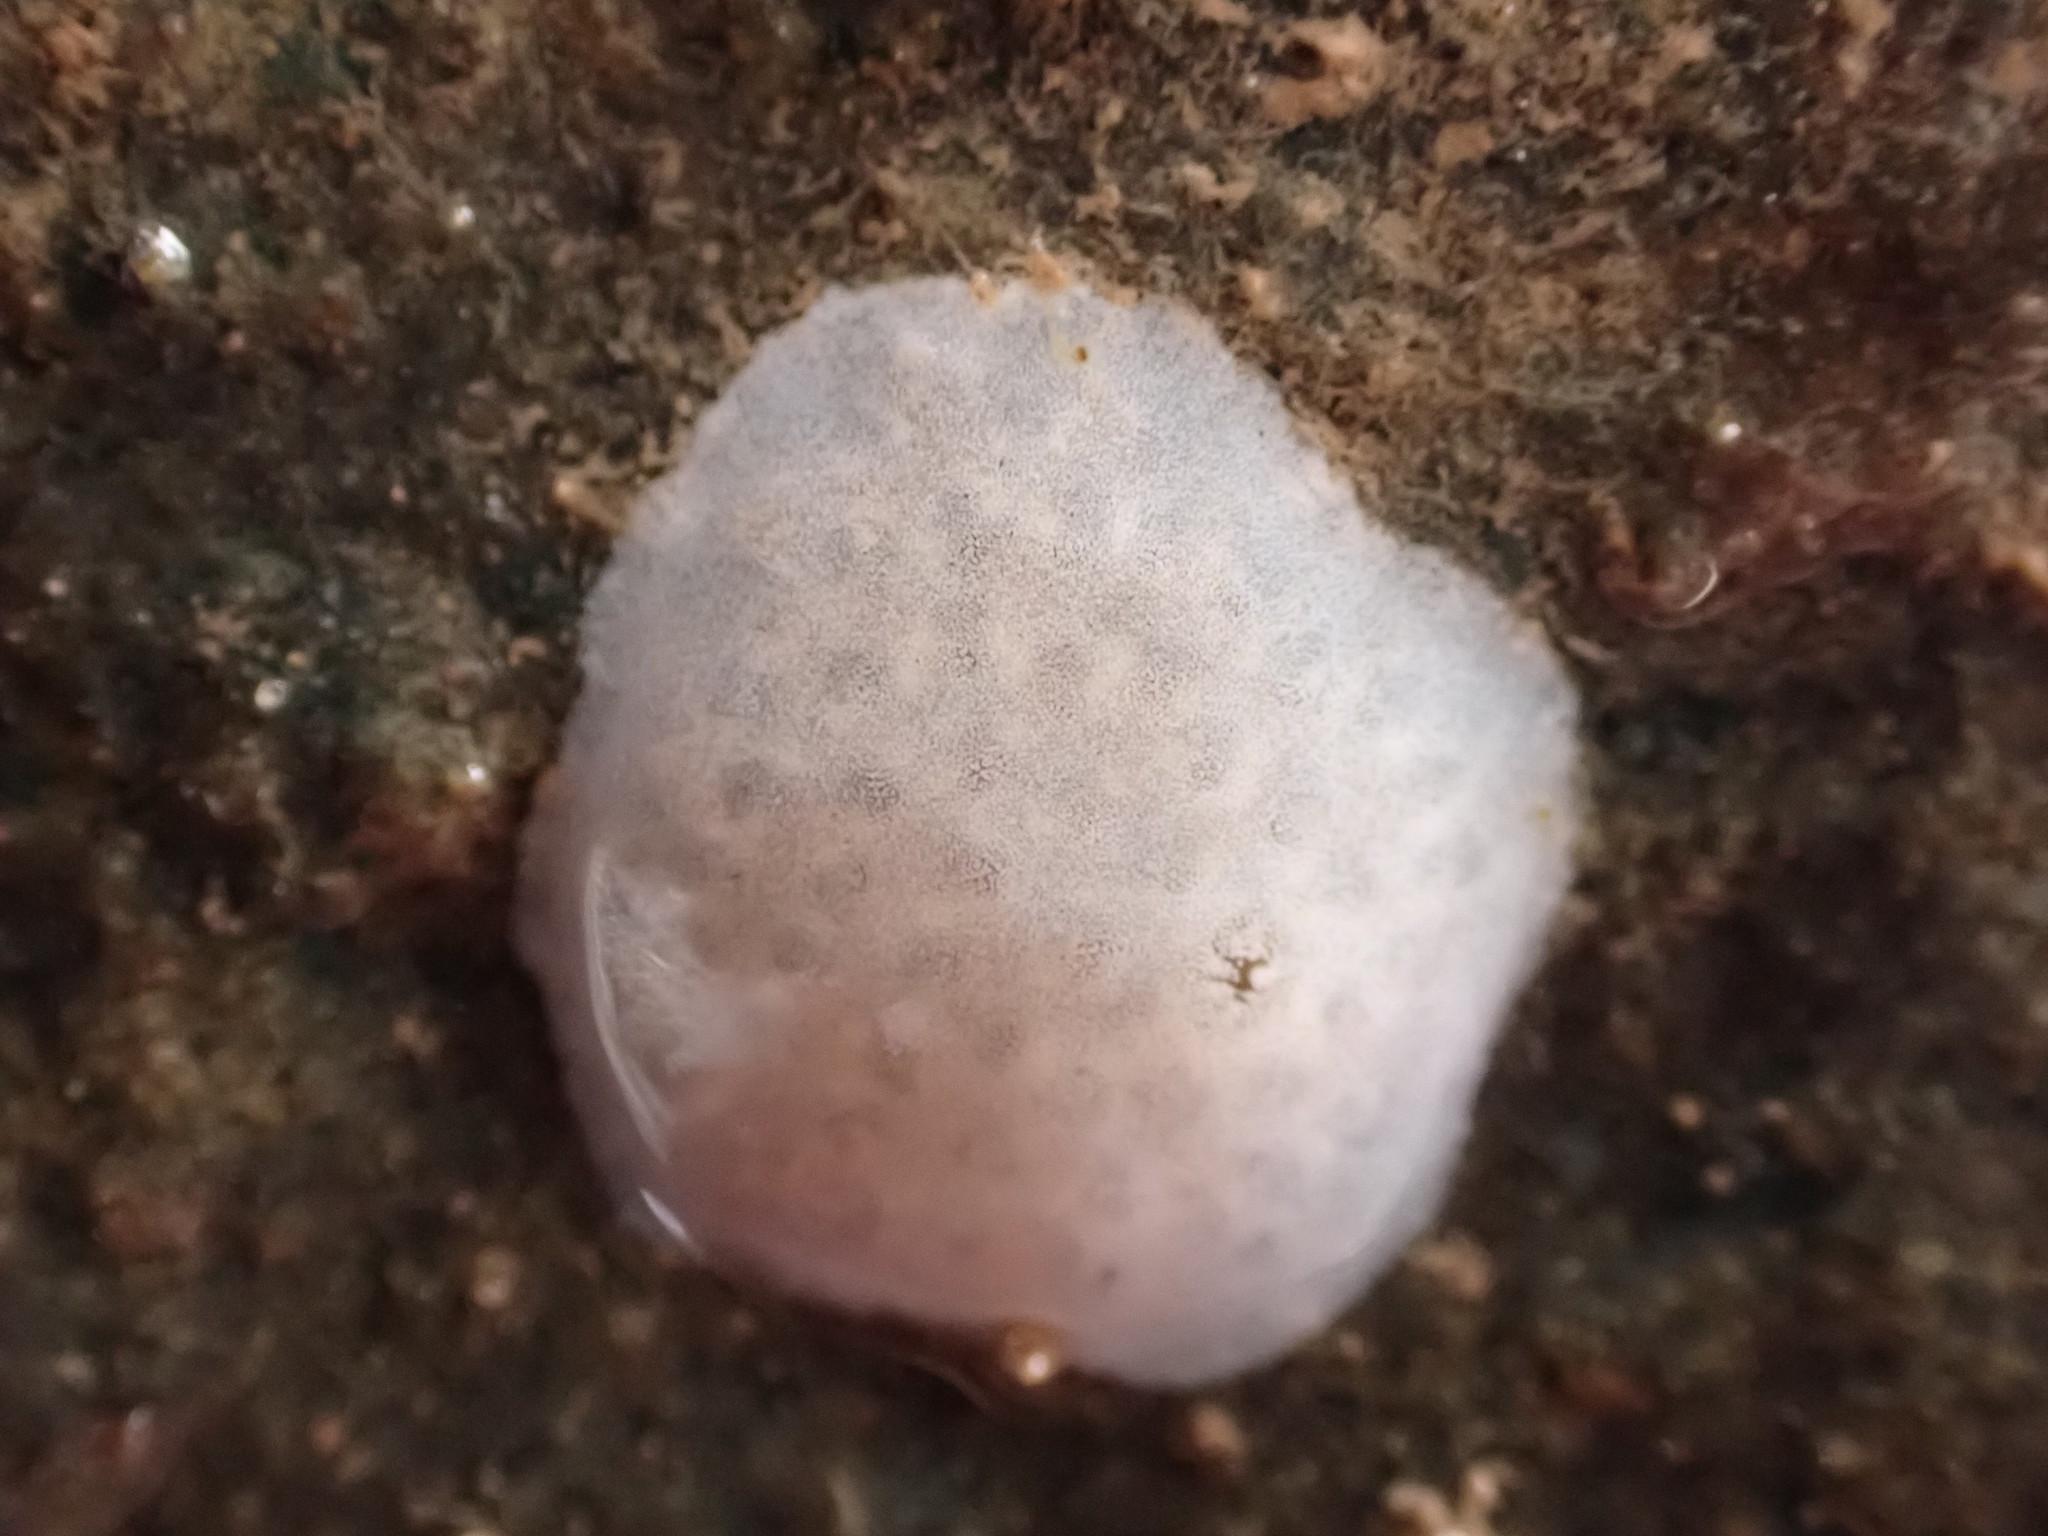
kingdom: Animalia
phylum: Chordata
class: Ascidiacea
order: Aplousobranchia
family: Didemnidae
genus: Didemnum
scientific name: Didemnum albidum
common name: Northern white crust
